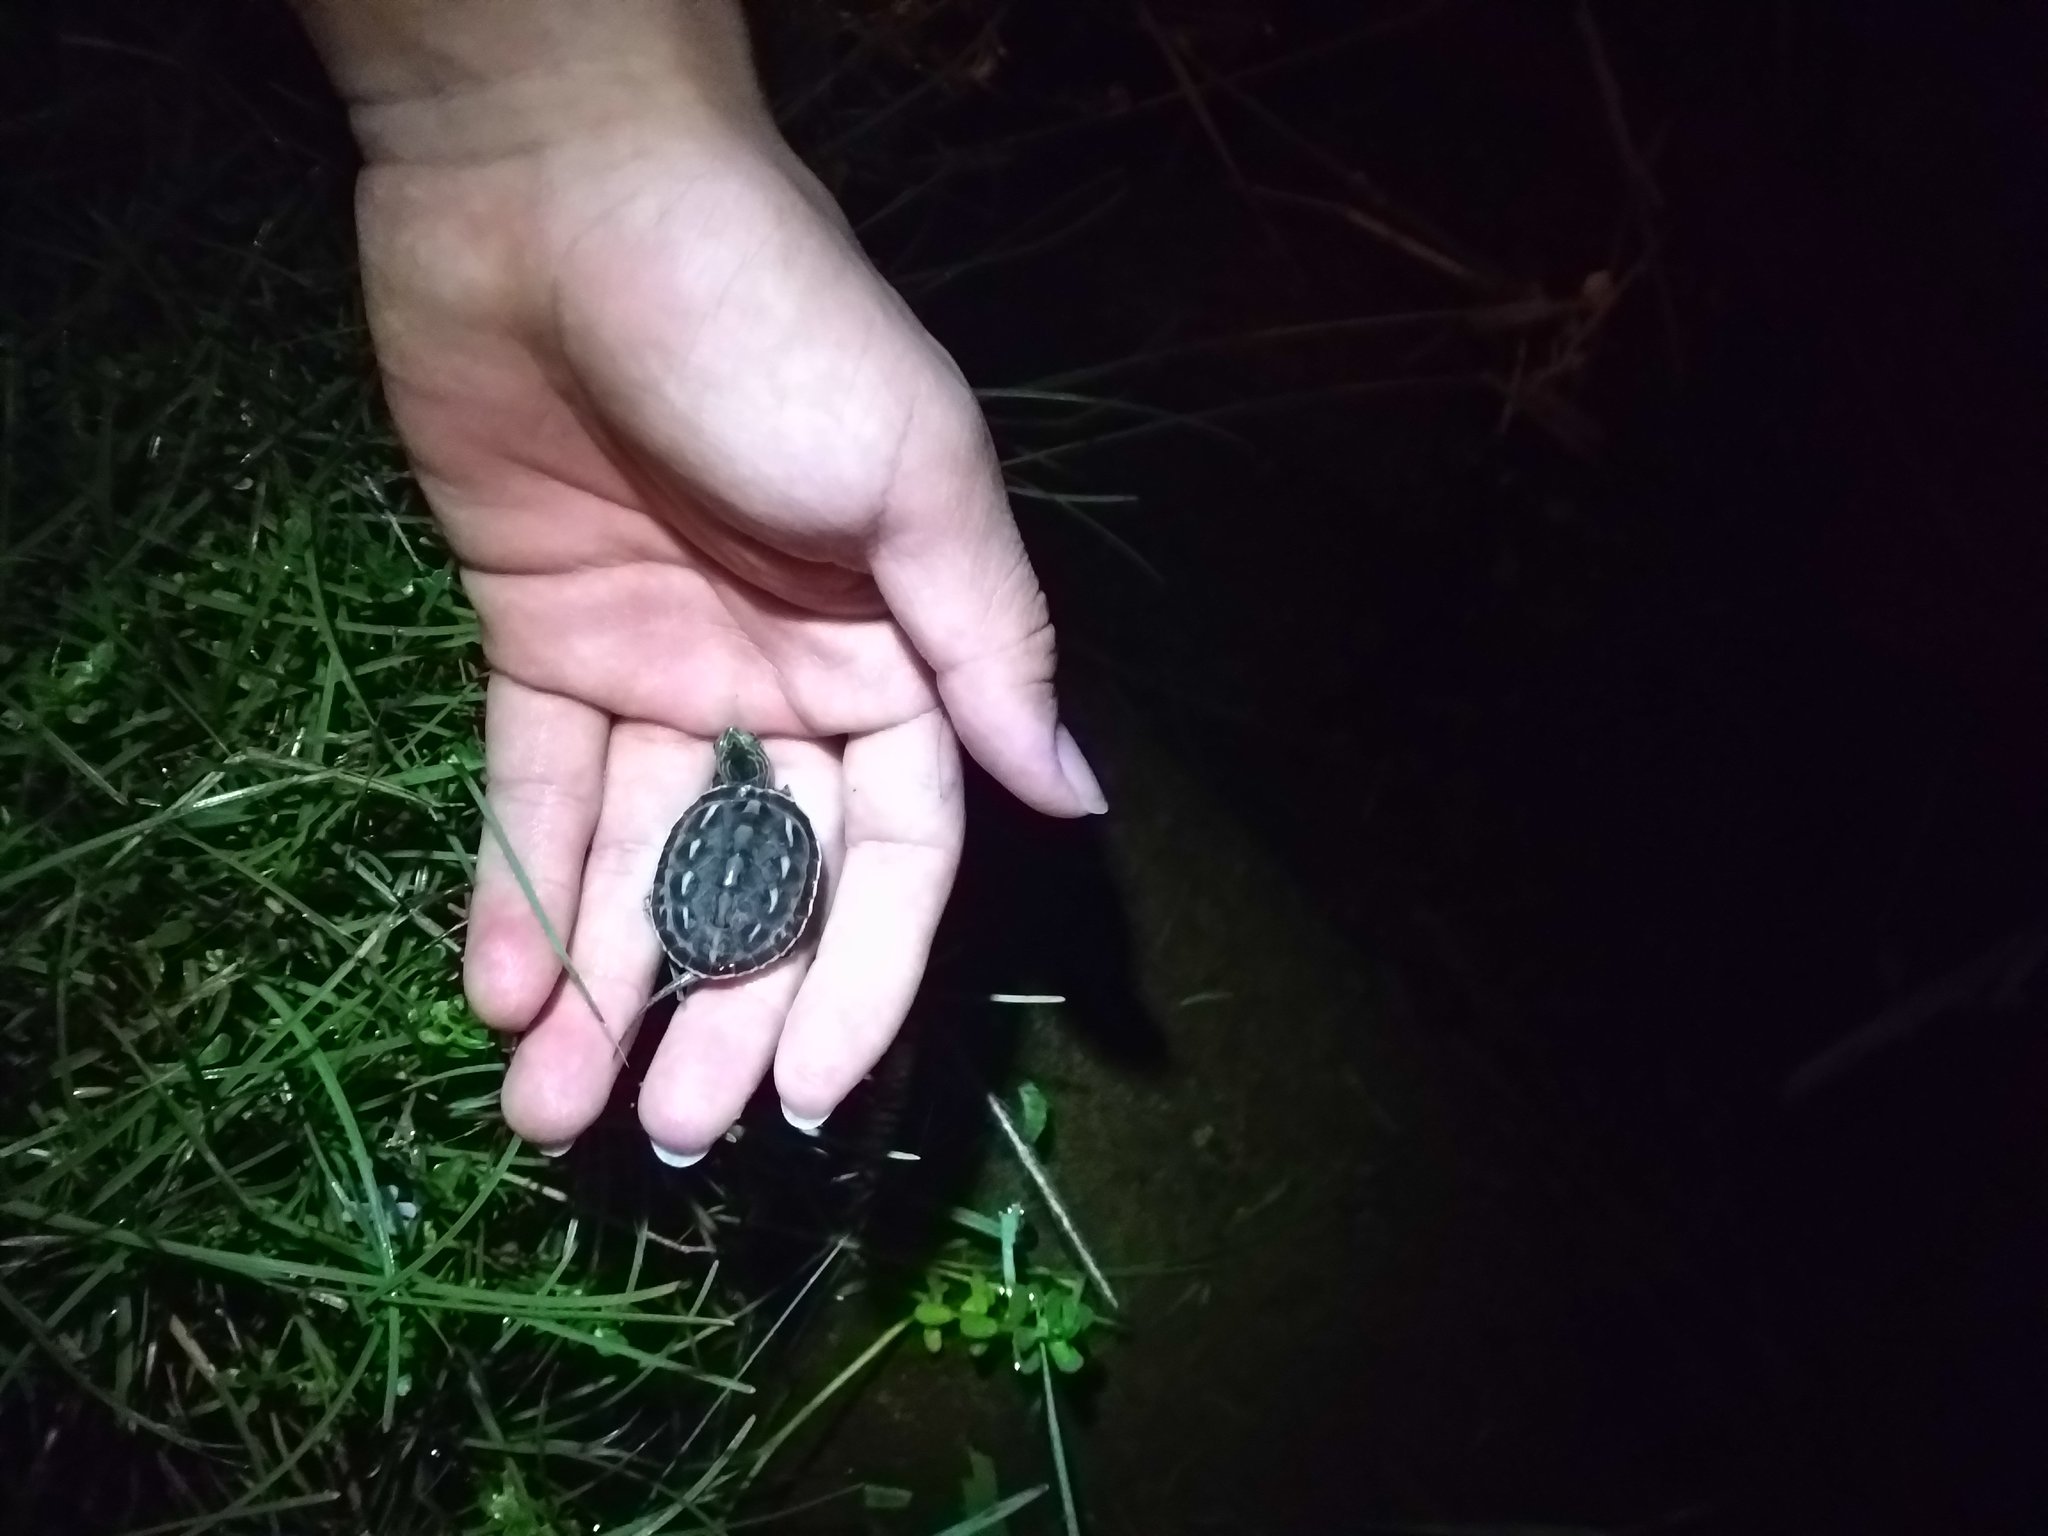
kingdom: Animalia
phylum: Chordata
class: Testudines
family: Geoemydidae
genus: Mauremys
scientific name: Mauremys sinensis
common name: Chinese stripe-necked turtle
